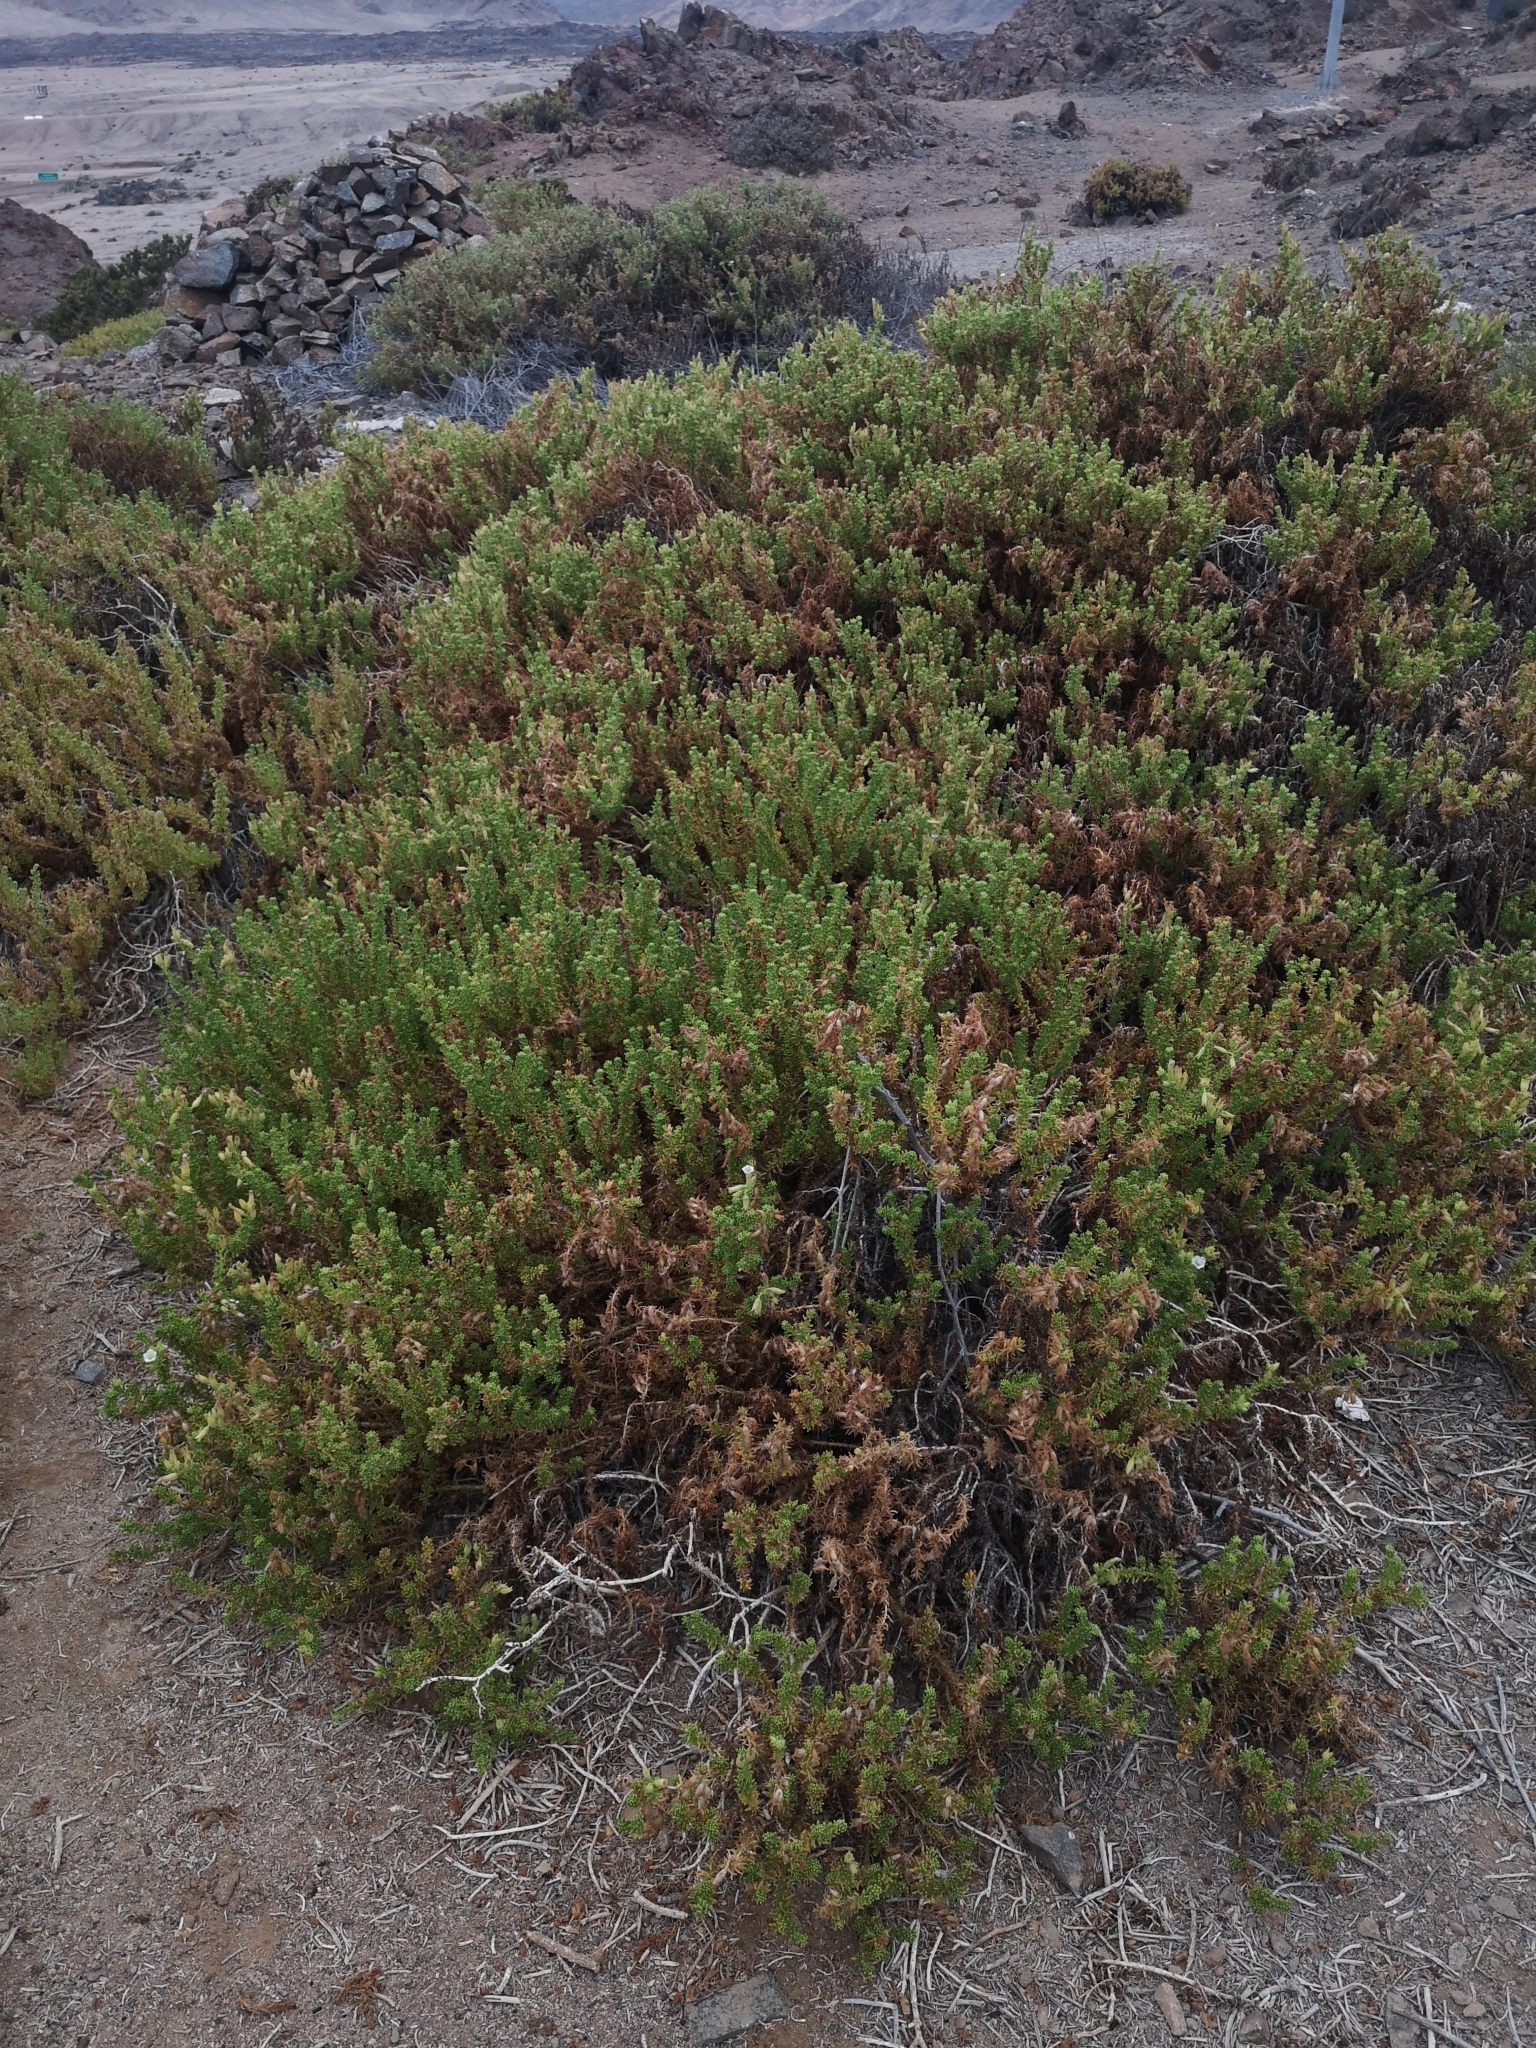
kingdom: Plantae
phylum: Tracheophyta
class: Magnoliopsida
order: Solanales
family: Solanaceae
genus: Nolana
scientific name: Nolana mollis
